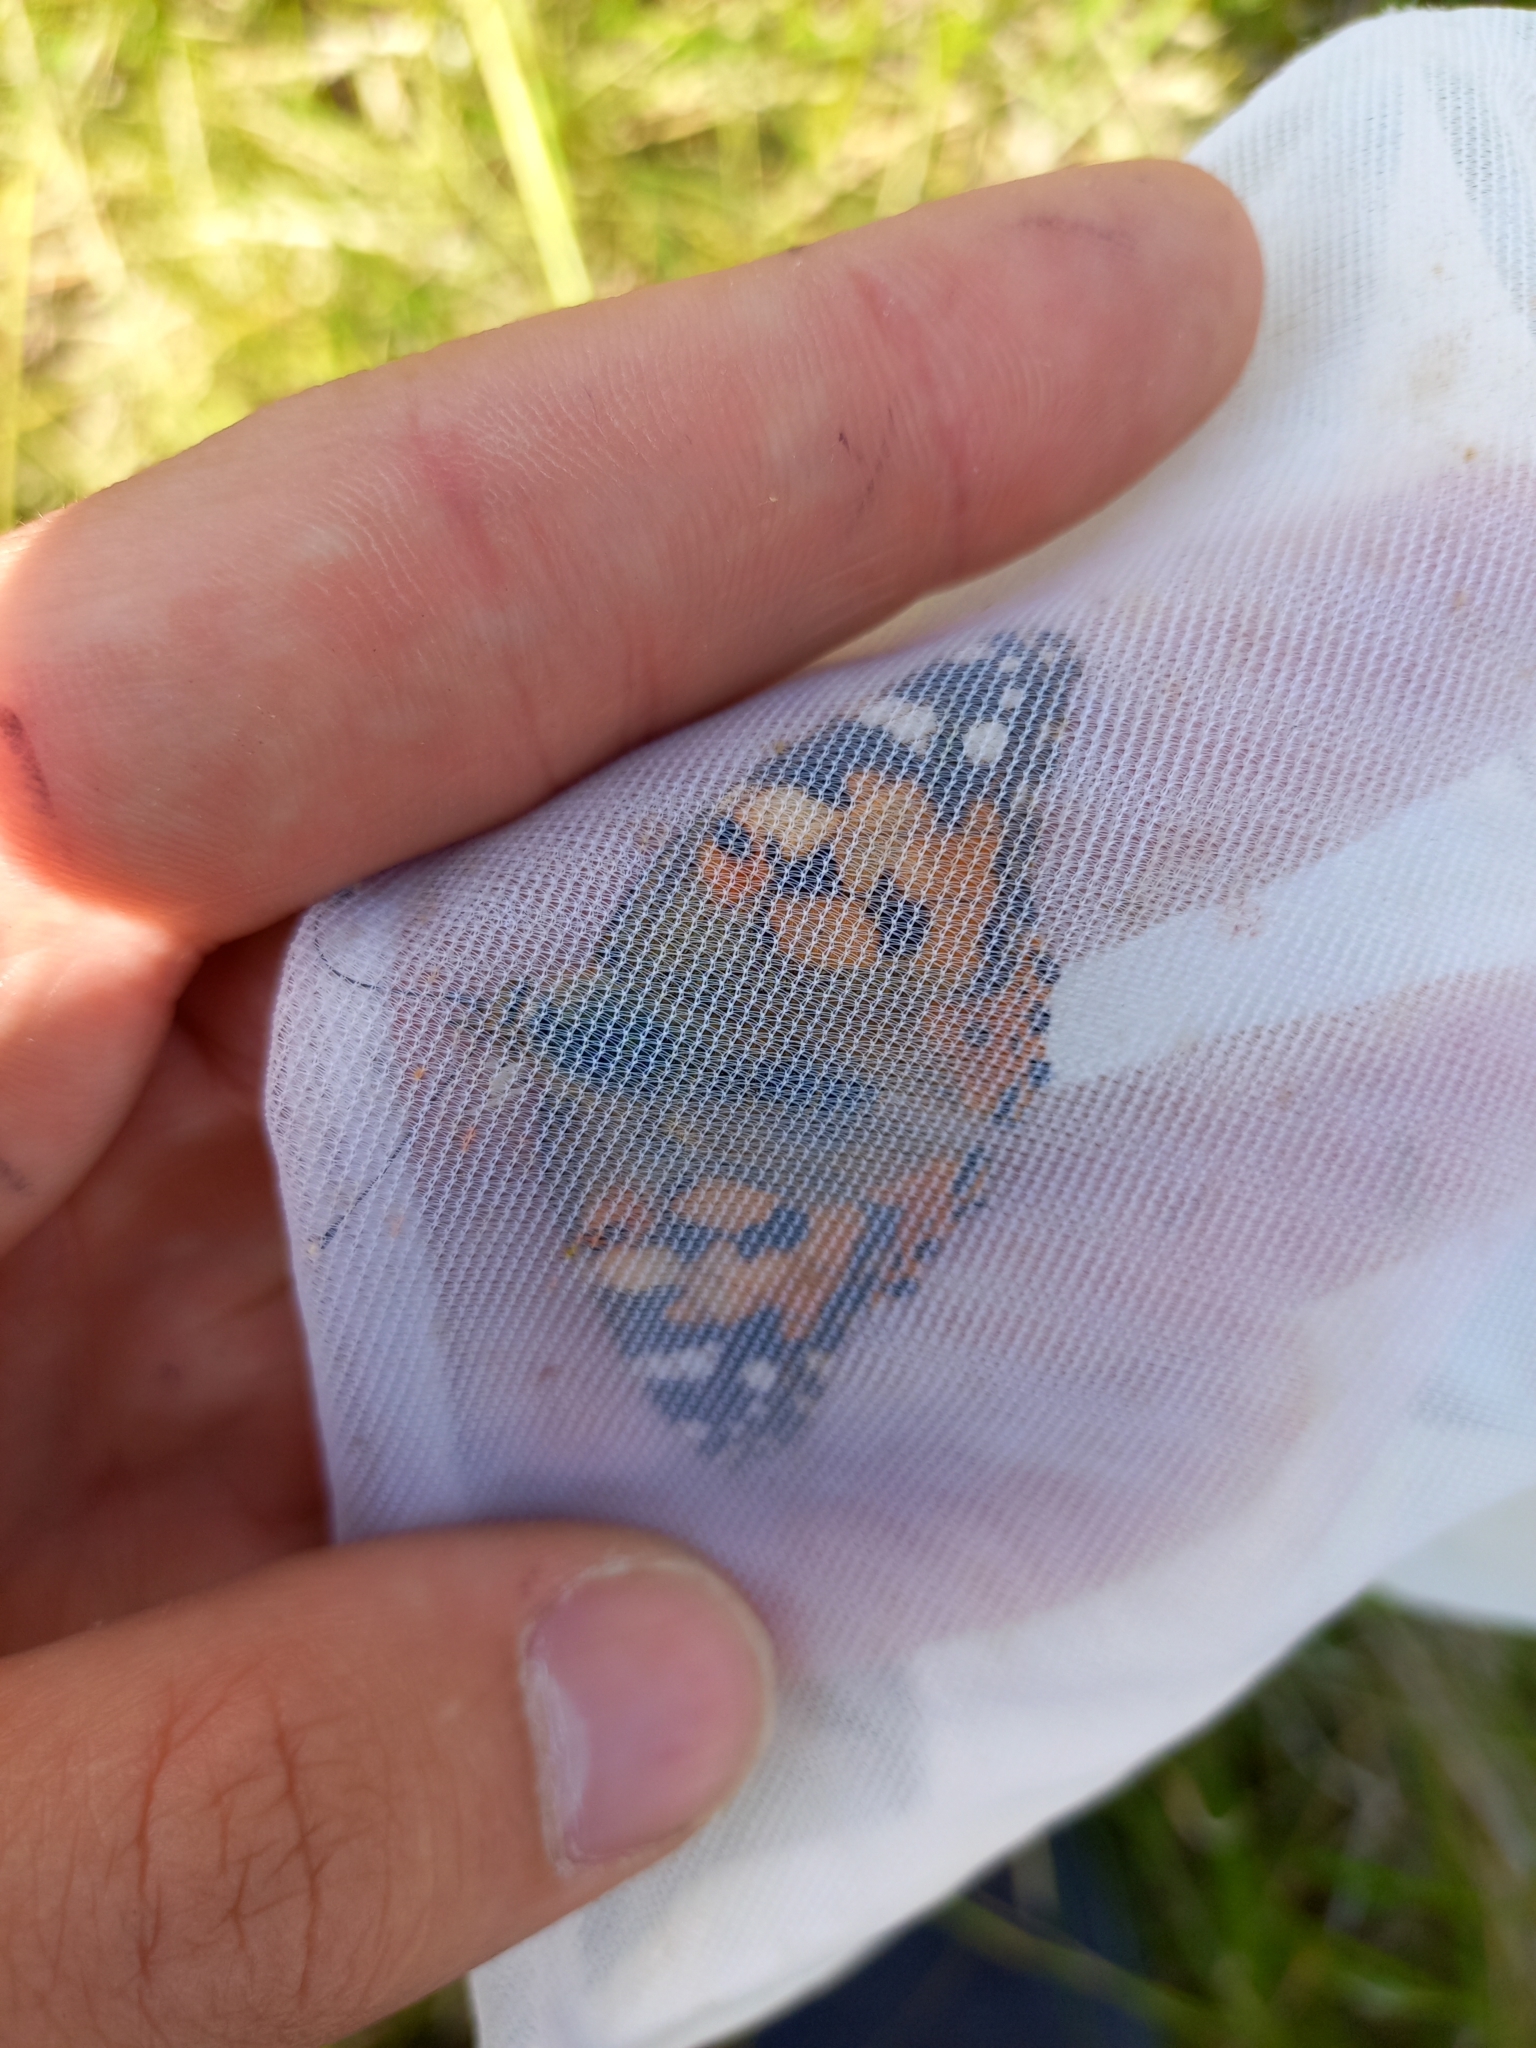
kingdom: Animalia
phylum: Arthropoda
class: Insecta
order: Lepidoptera
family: Nymphalidae
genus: Vanessa
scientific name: Vanessa cardui
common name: Painted lady
